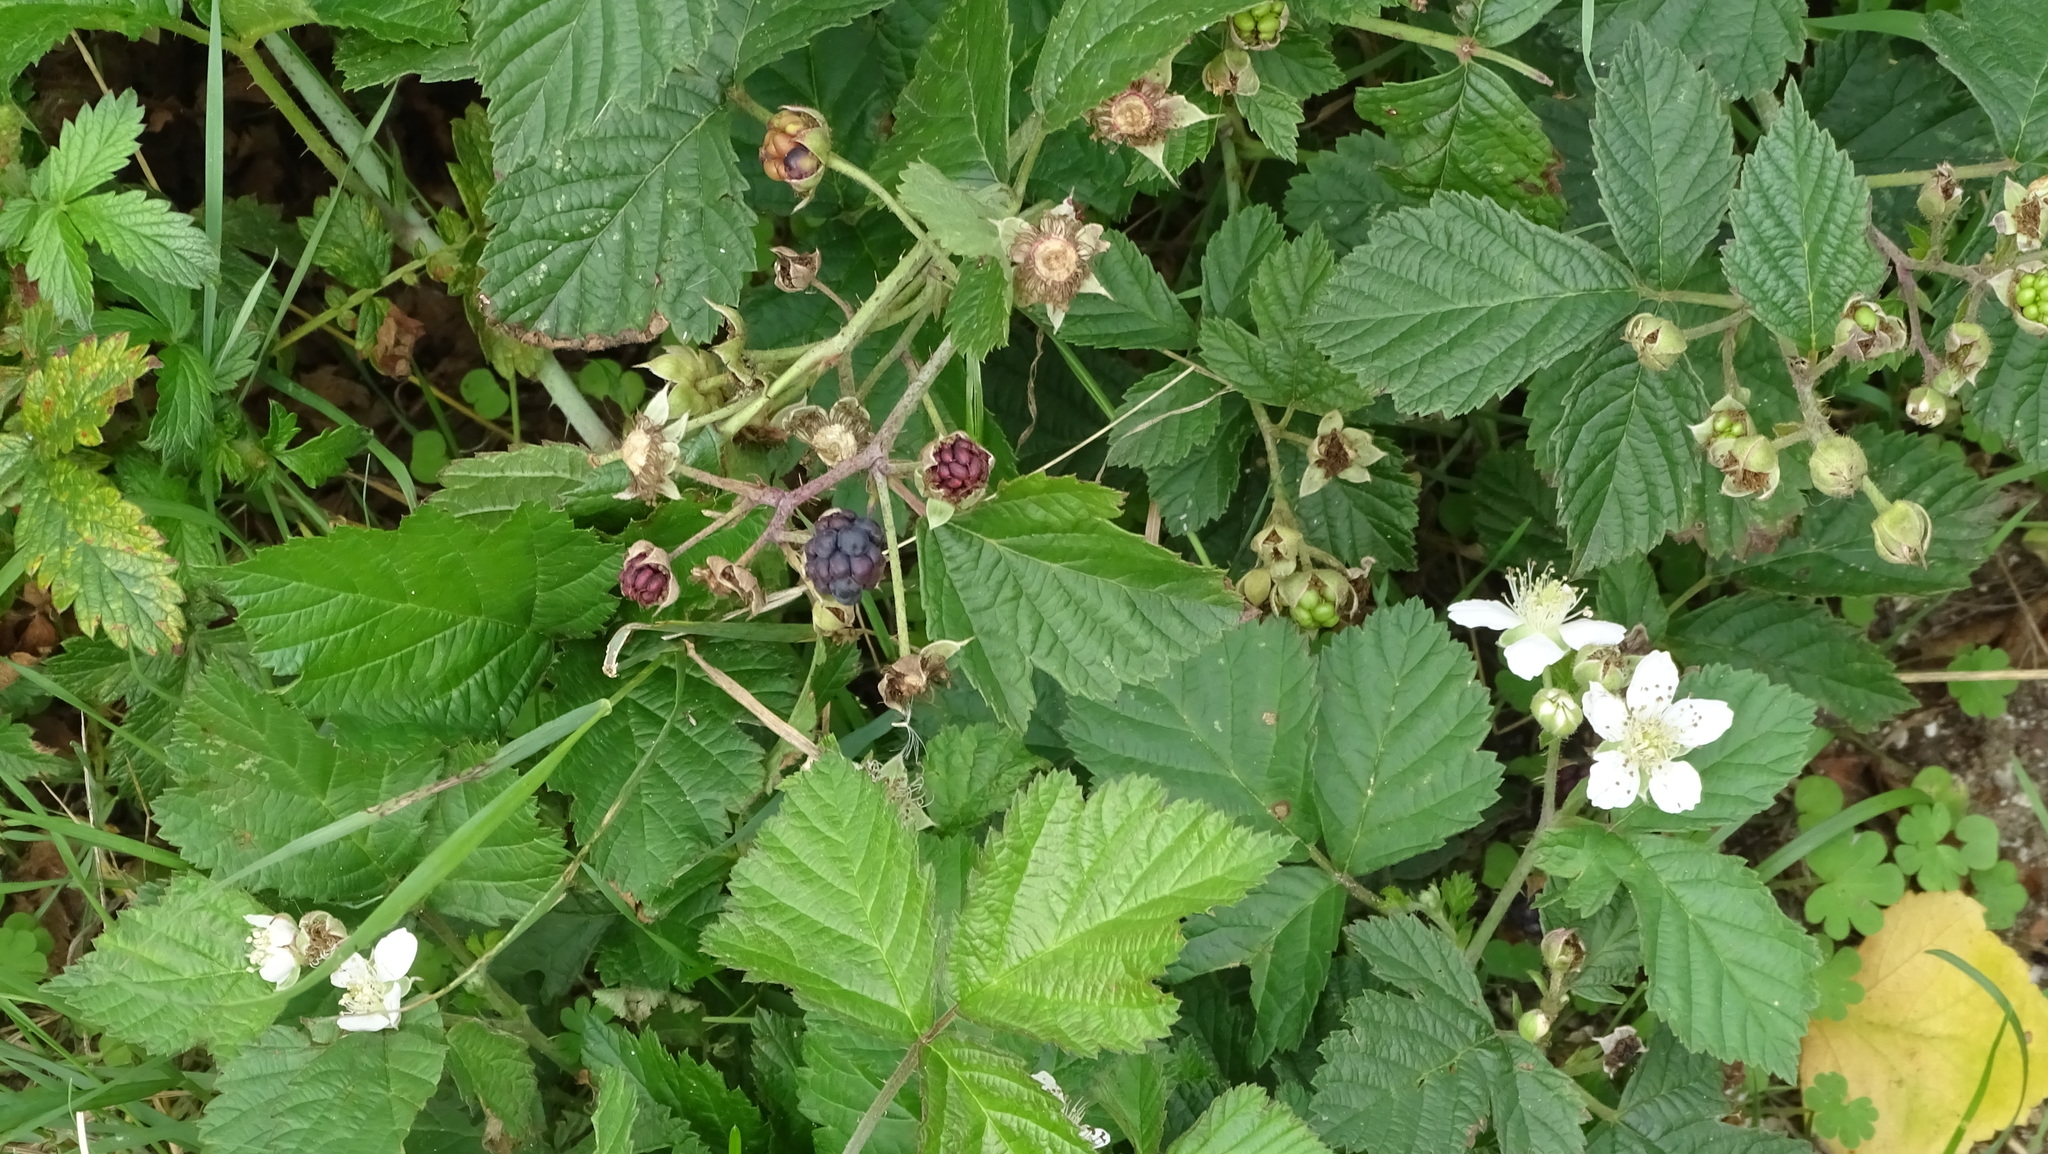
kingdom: Plantae
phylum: Tracheophyta
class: Magnoliopsida
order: Rosales
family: Rosaceae
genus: Rubus
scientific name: Rubus caesius
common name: Dewberry
